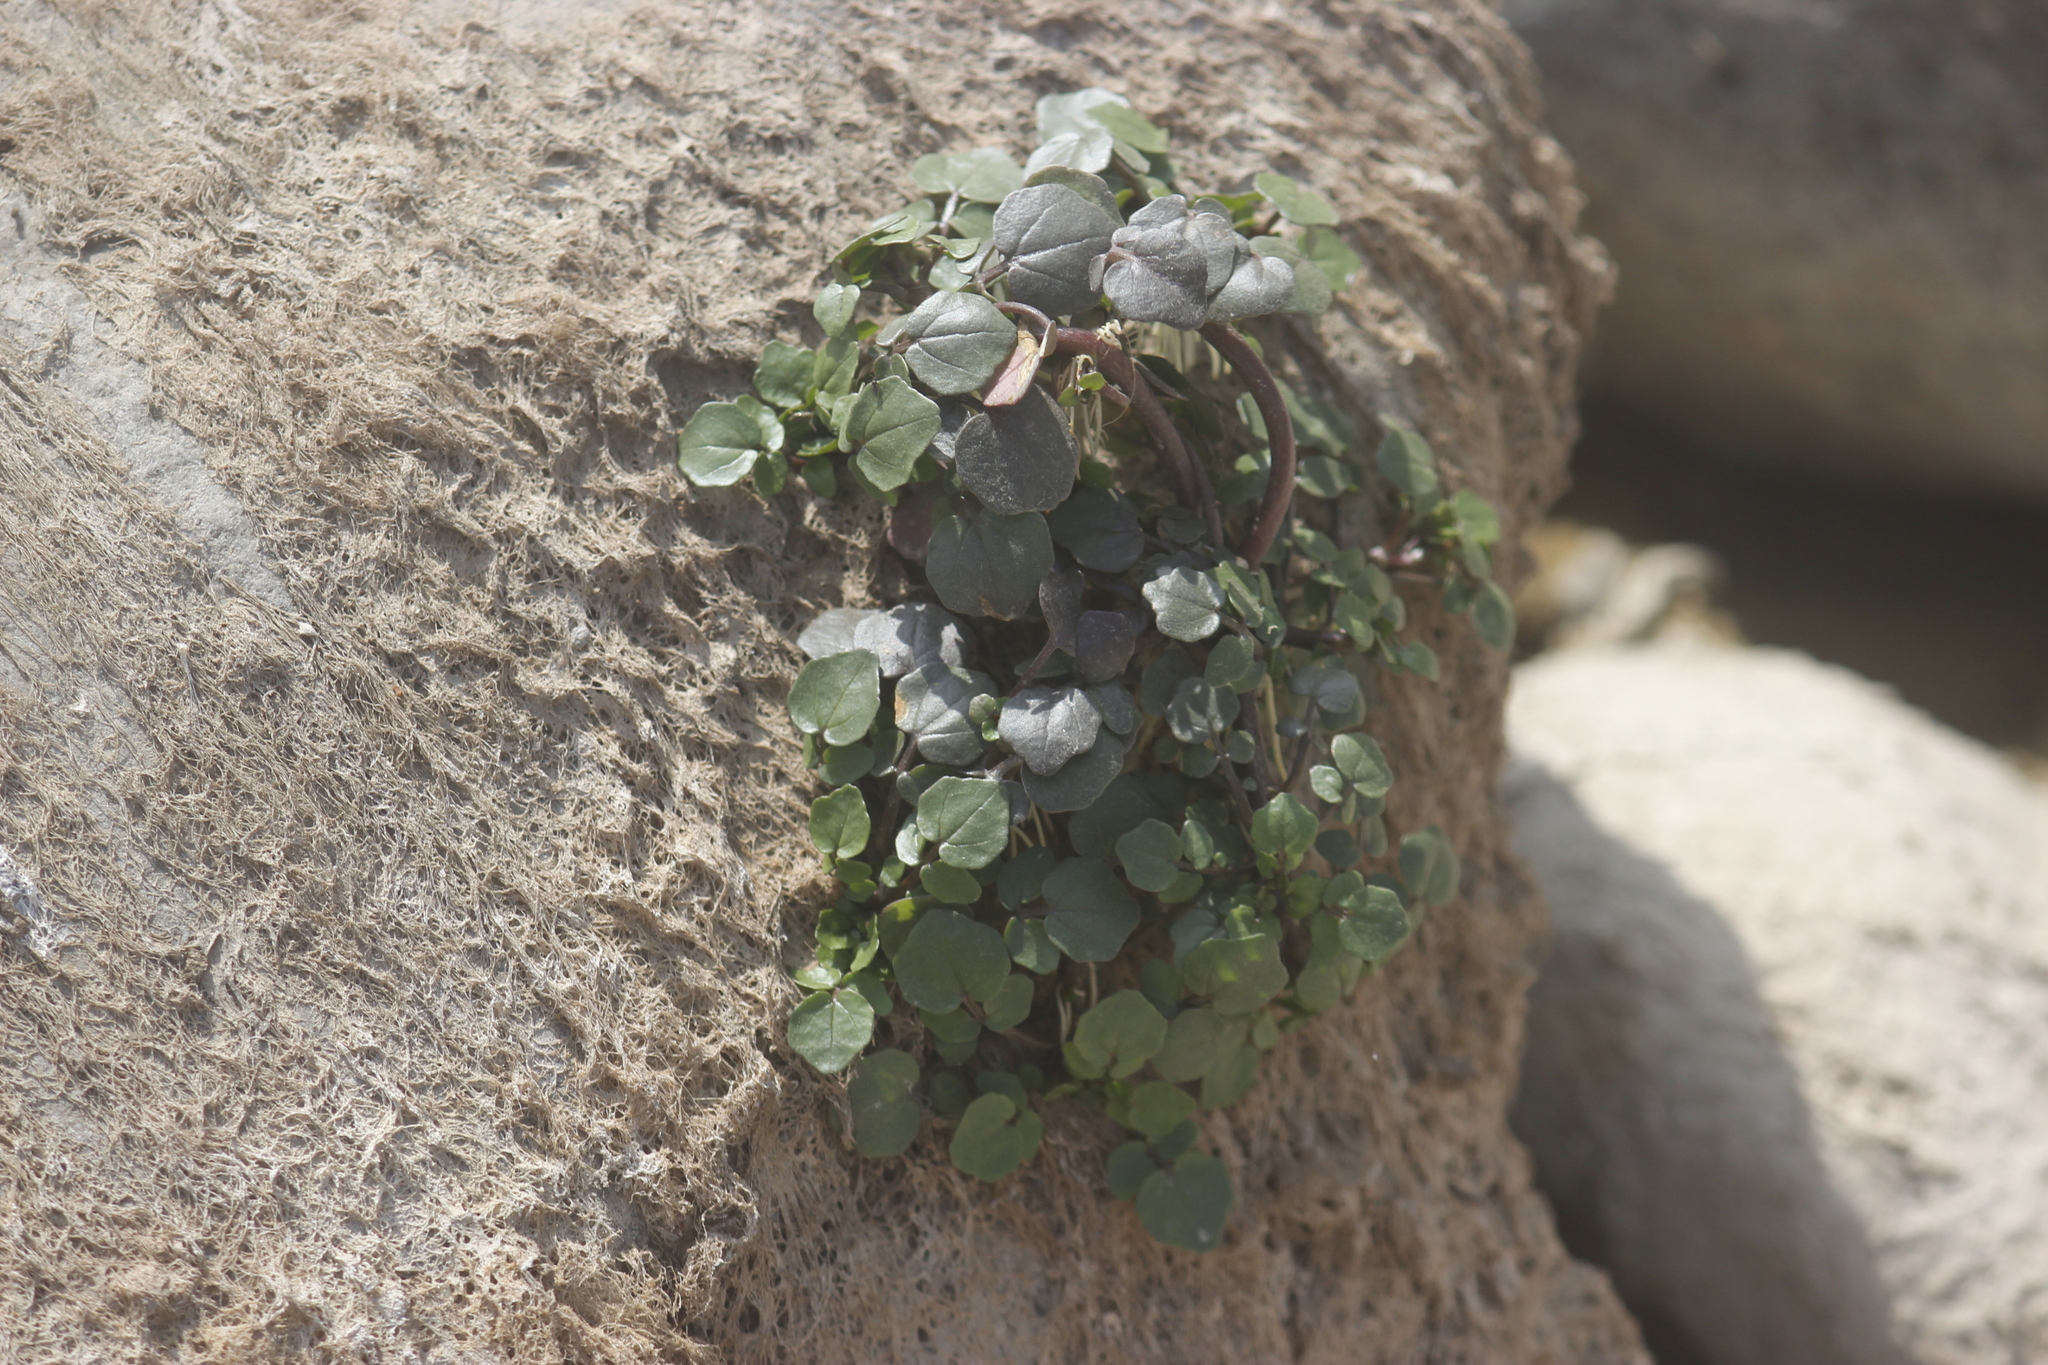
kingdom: Plantae
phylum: Tracheophyta
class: Magnoliopsida
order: Brassicales
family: Brassicaceae
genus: Nasturtium
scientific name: Nasturtium officinale
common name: Watercress
